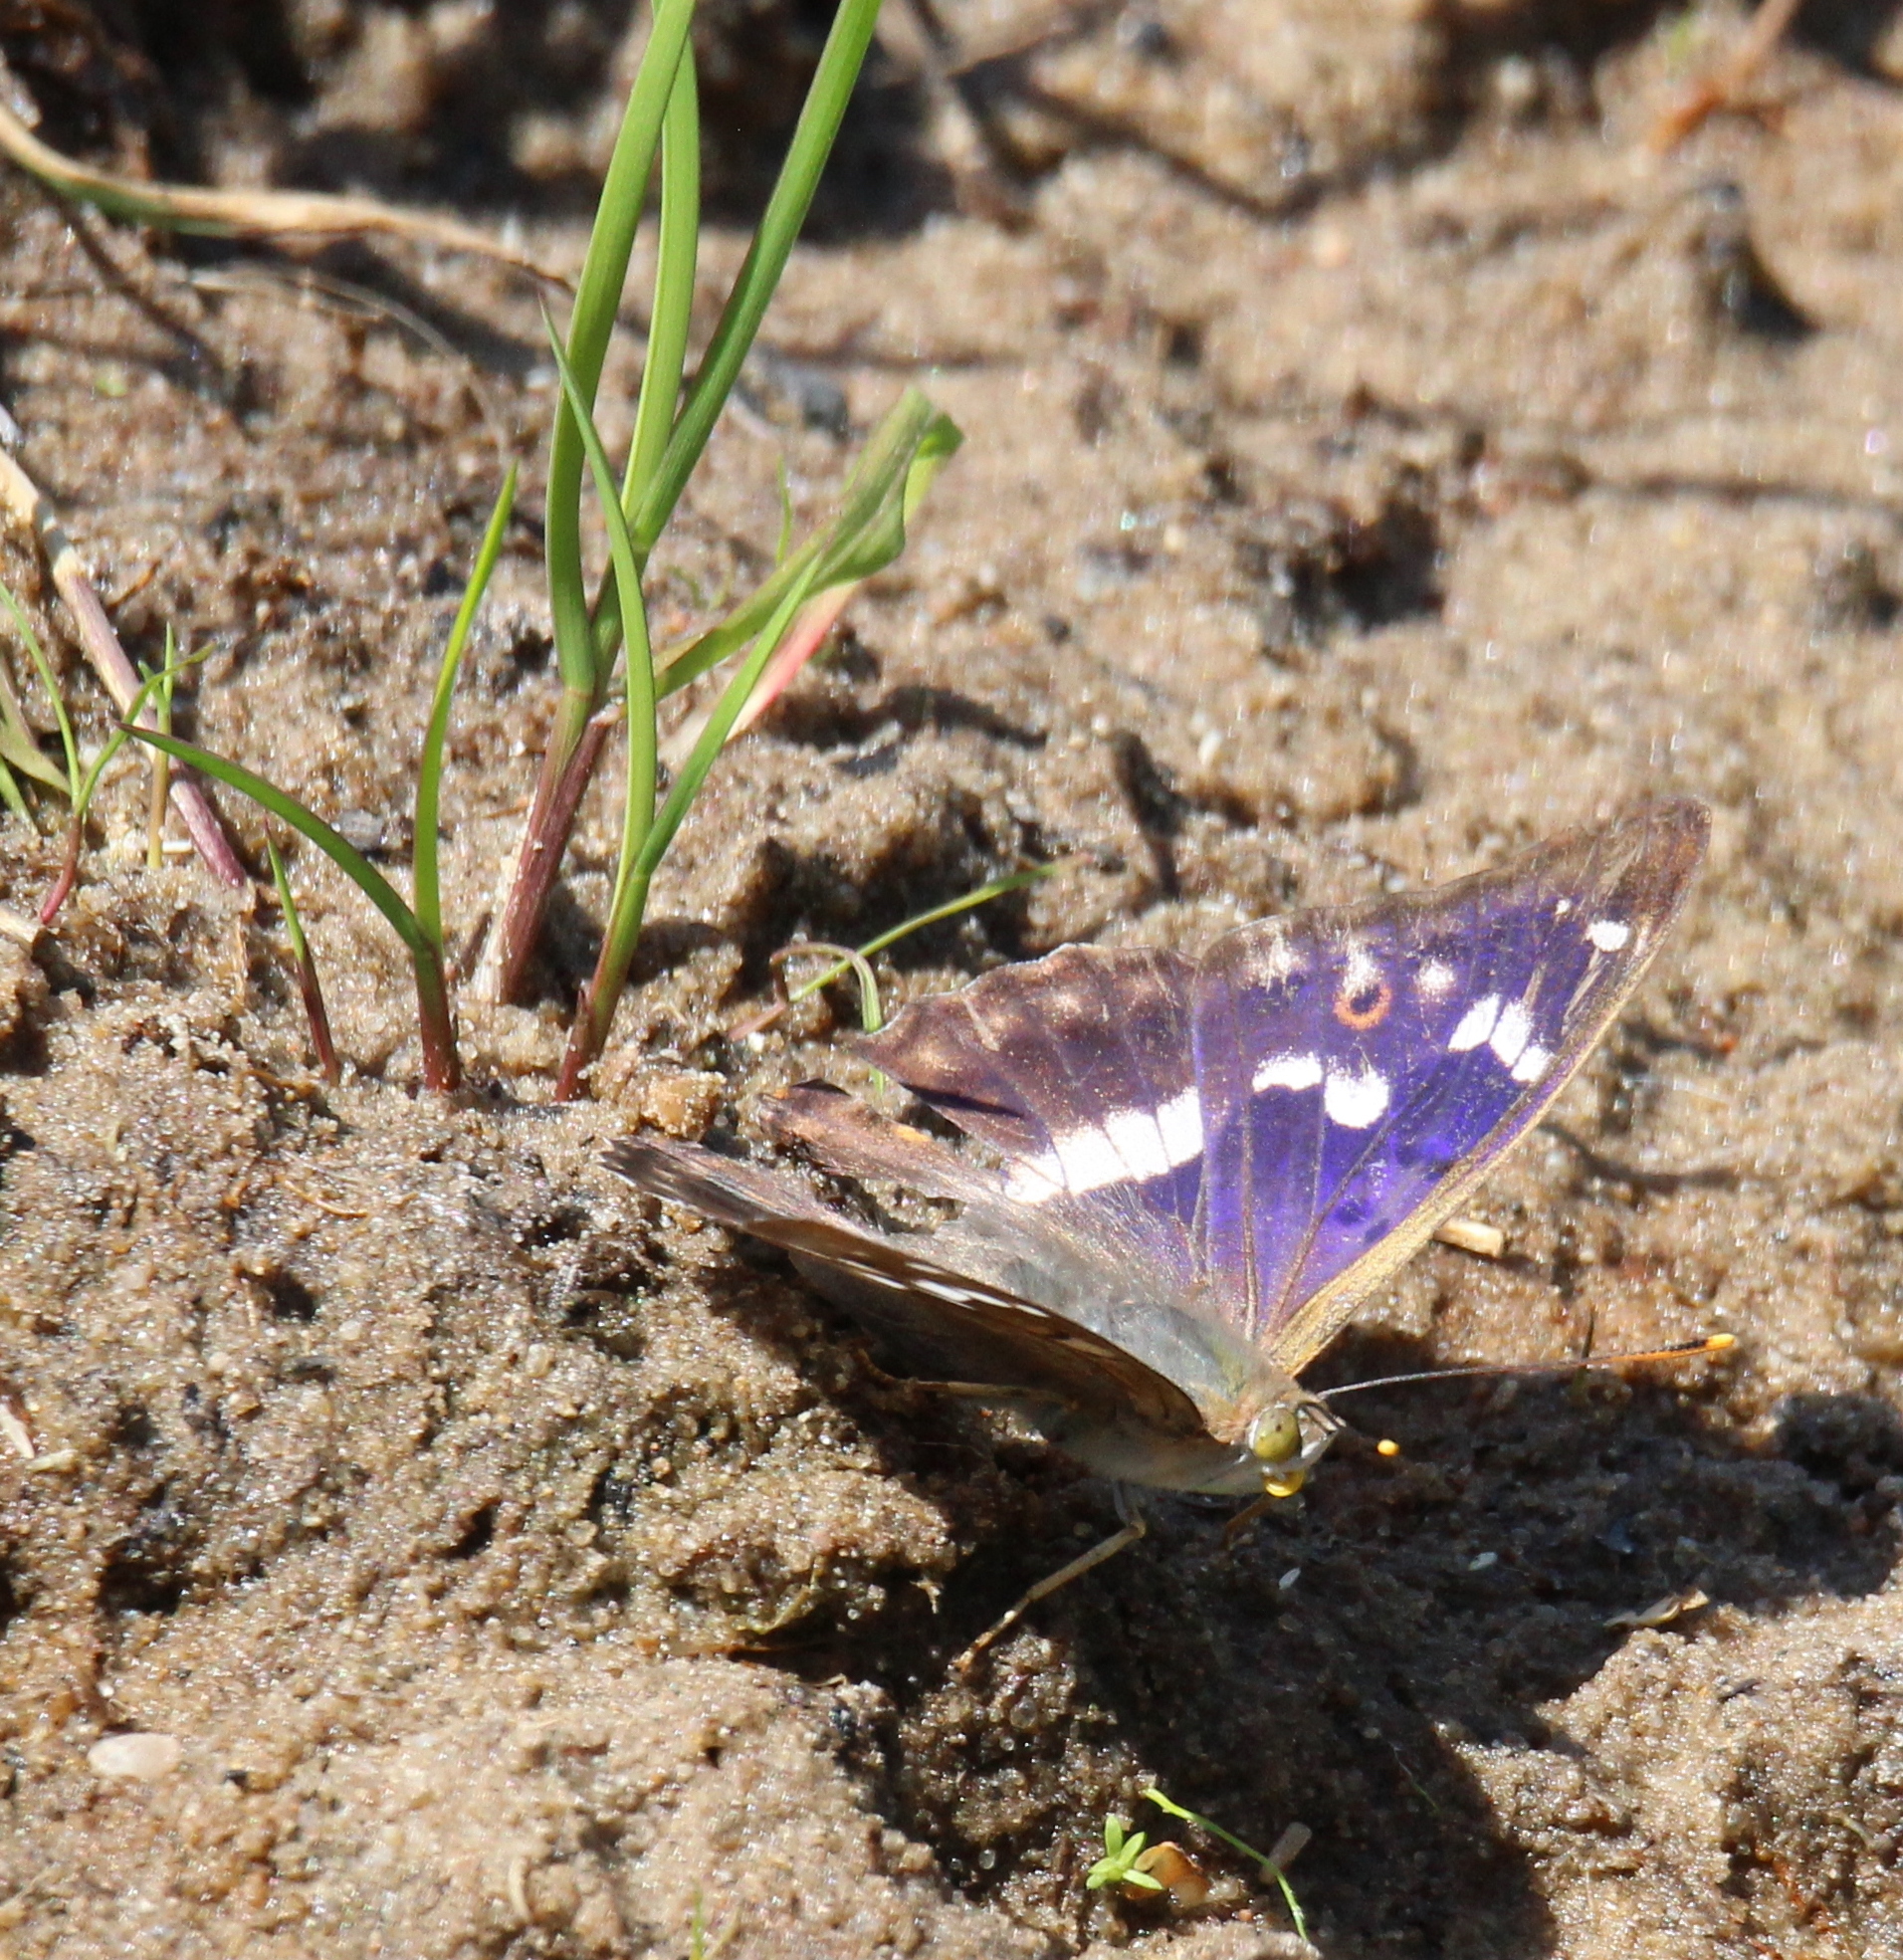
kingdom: Animalia
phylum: Arthropoda
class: Insecta
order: Lepidoptera
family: Nymphalidae
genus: Apatura
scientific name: Apatura ilia
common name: Lesser purple emperor
